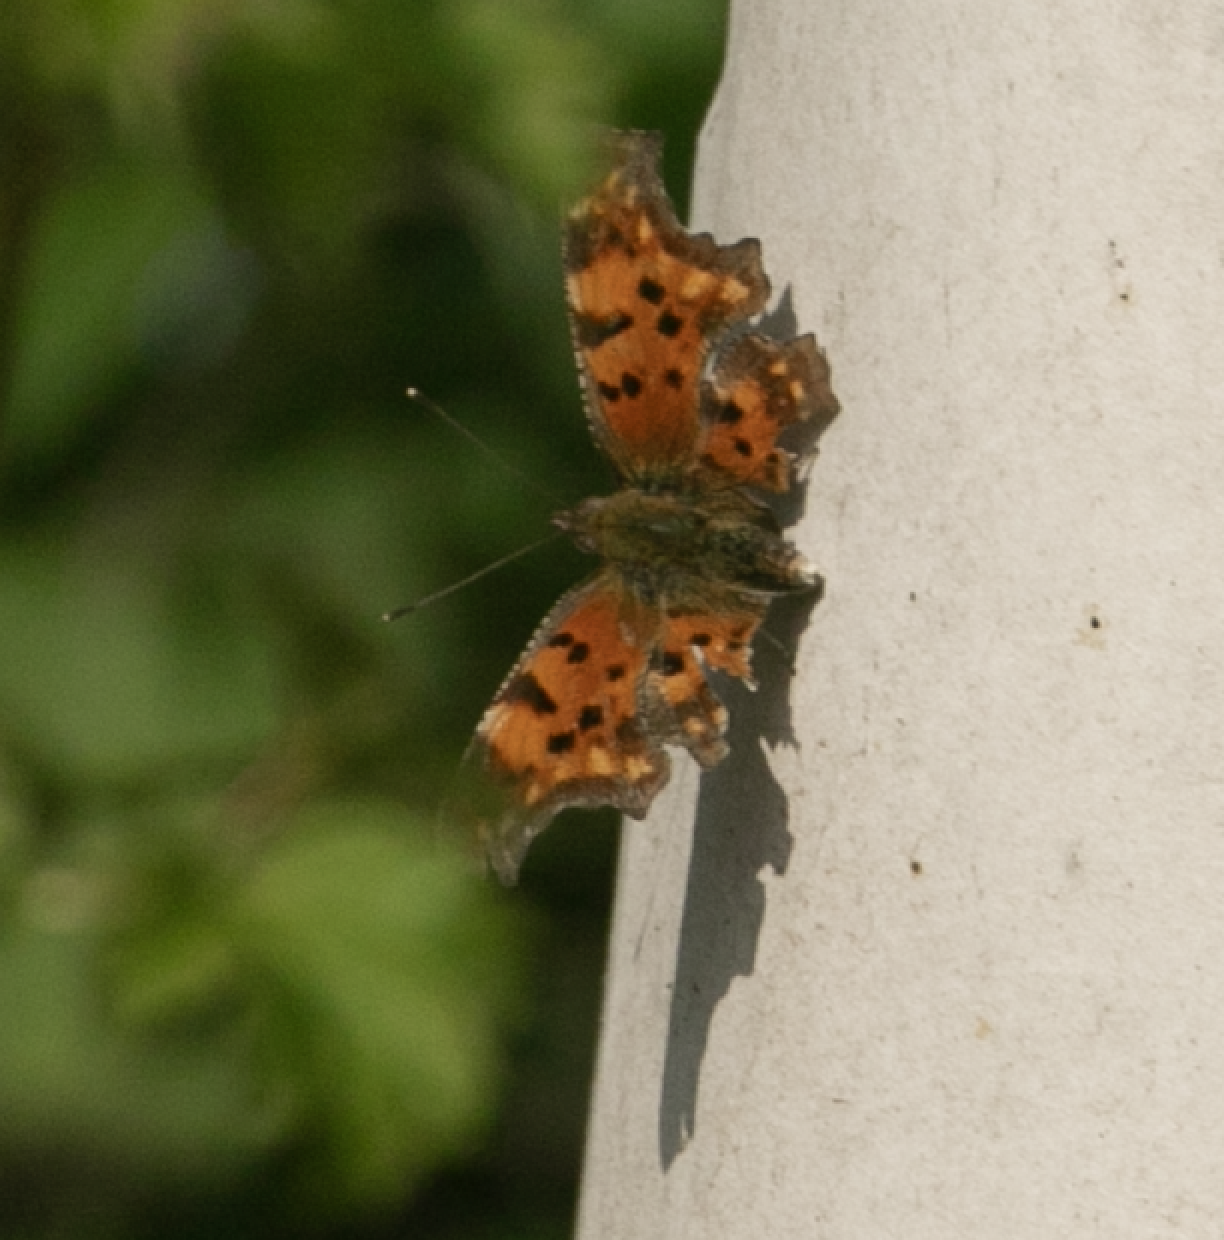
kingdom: Animalia
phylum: Arthropoda
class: Insecta
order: Lepidoptera
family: Nymphalidae
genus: Polygonia
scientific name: Polygonia c-album
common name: Comma
